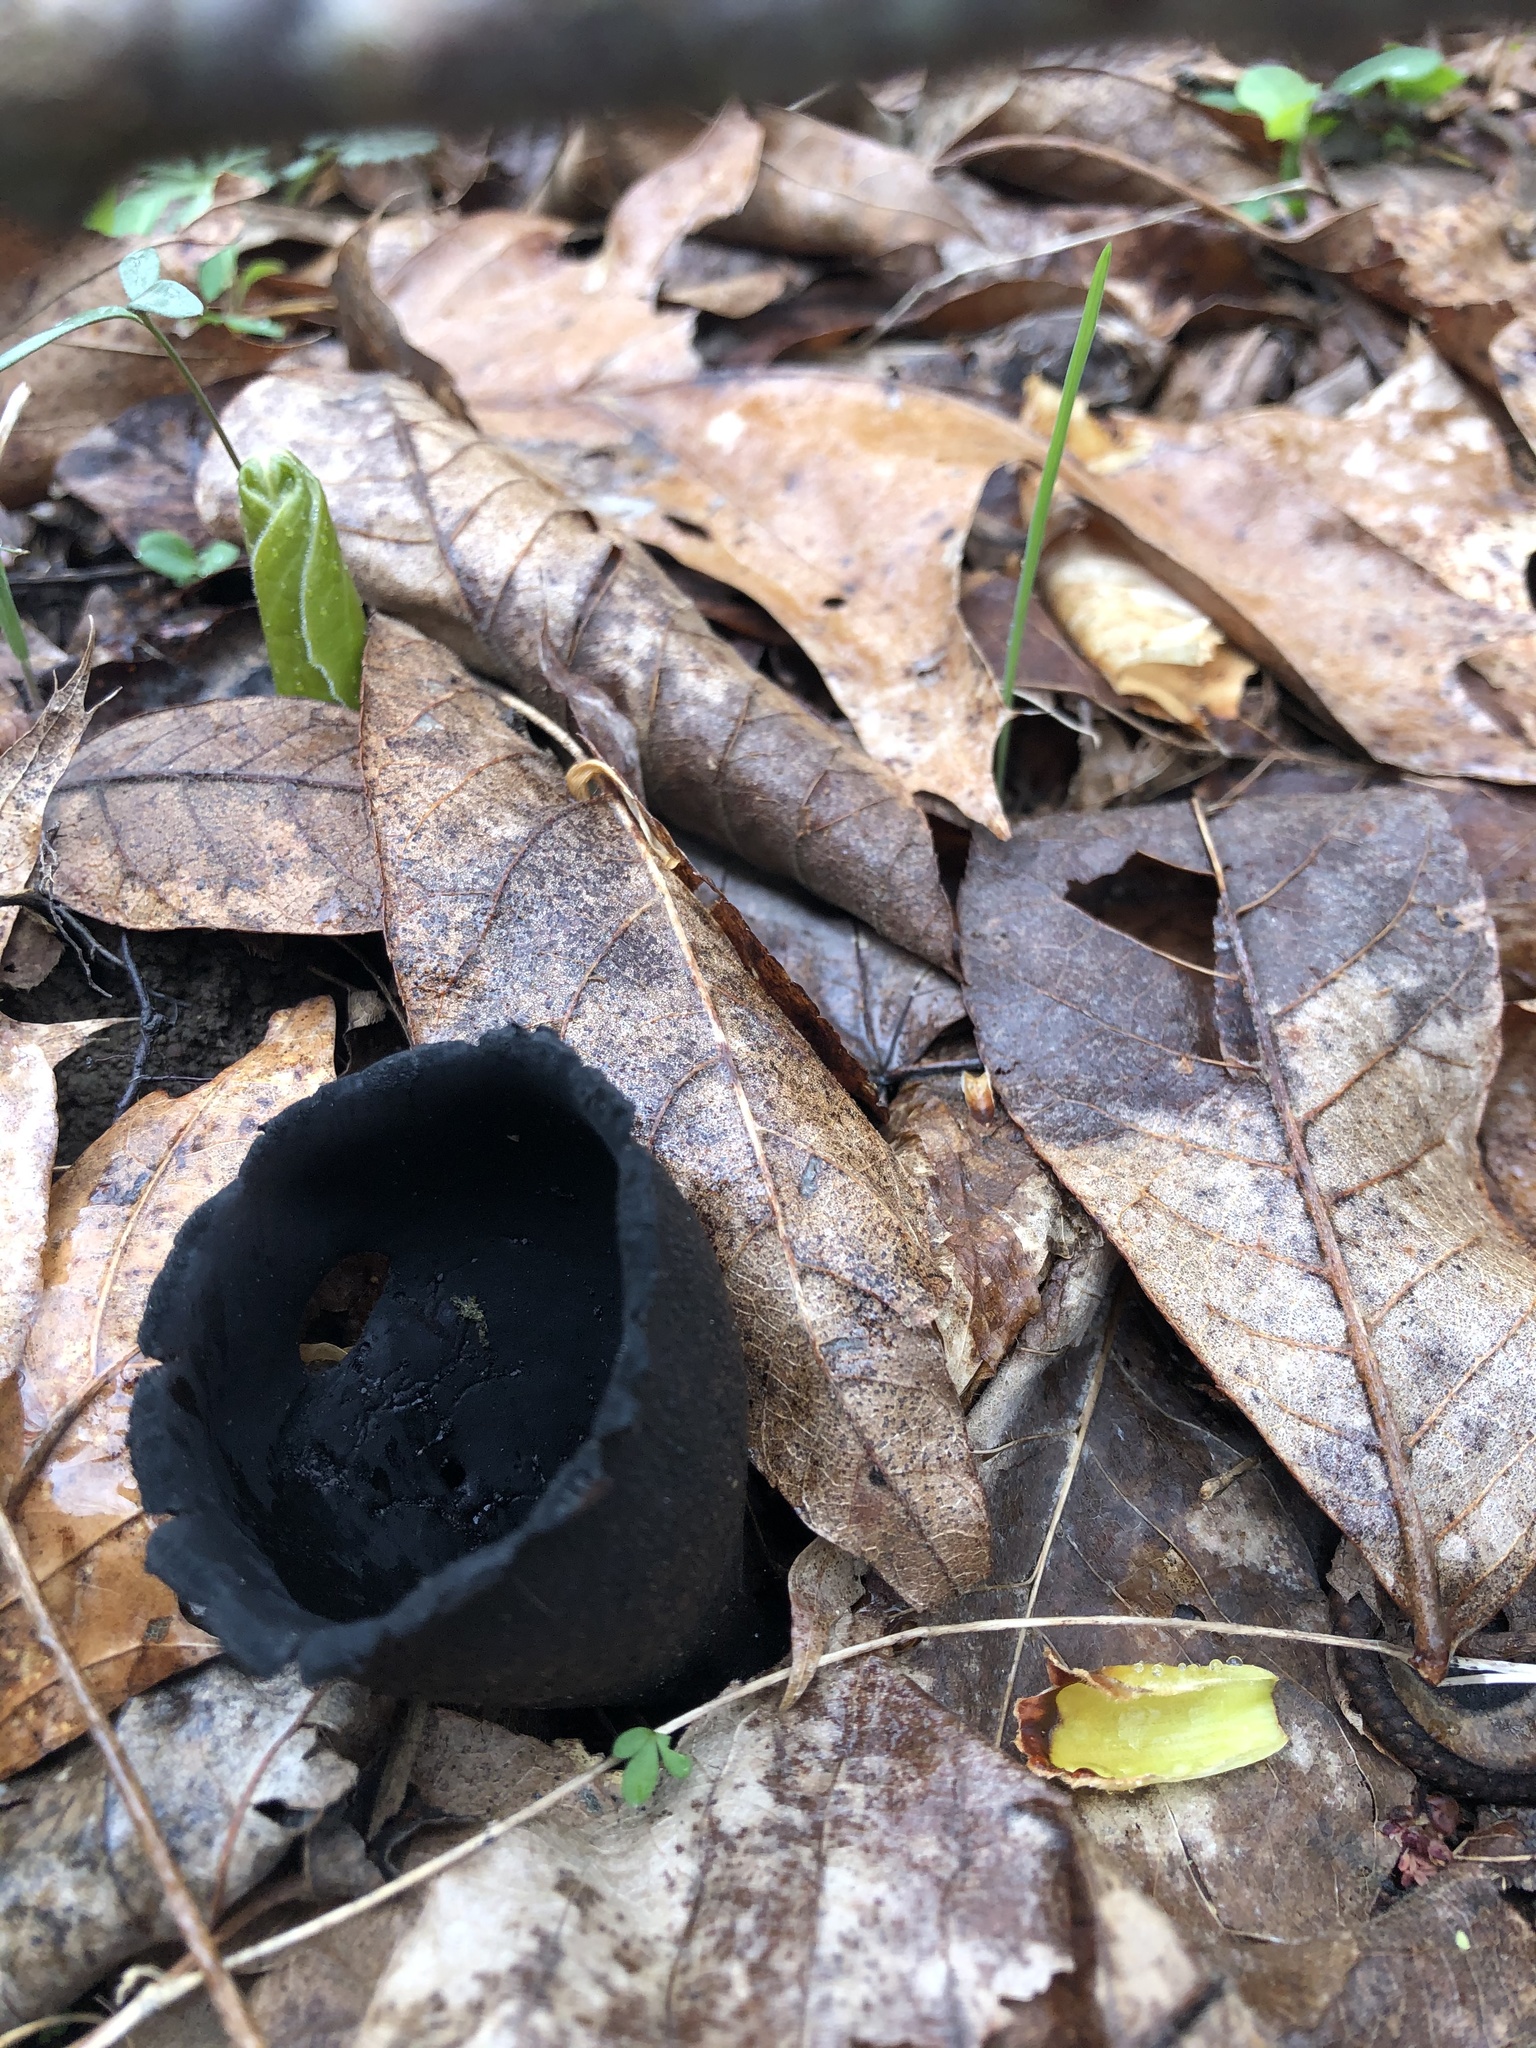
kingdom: Fungi
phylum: Ascomycota
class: Pezizomycetes
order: Pezizales
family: Sarcosomataceae
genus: Urnula
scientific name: Urnula craterium
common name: Devil's urn
